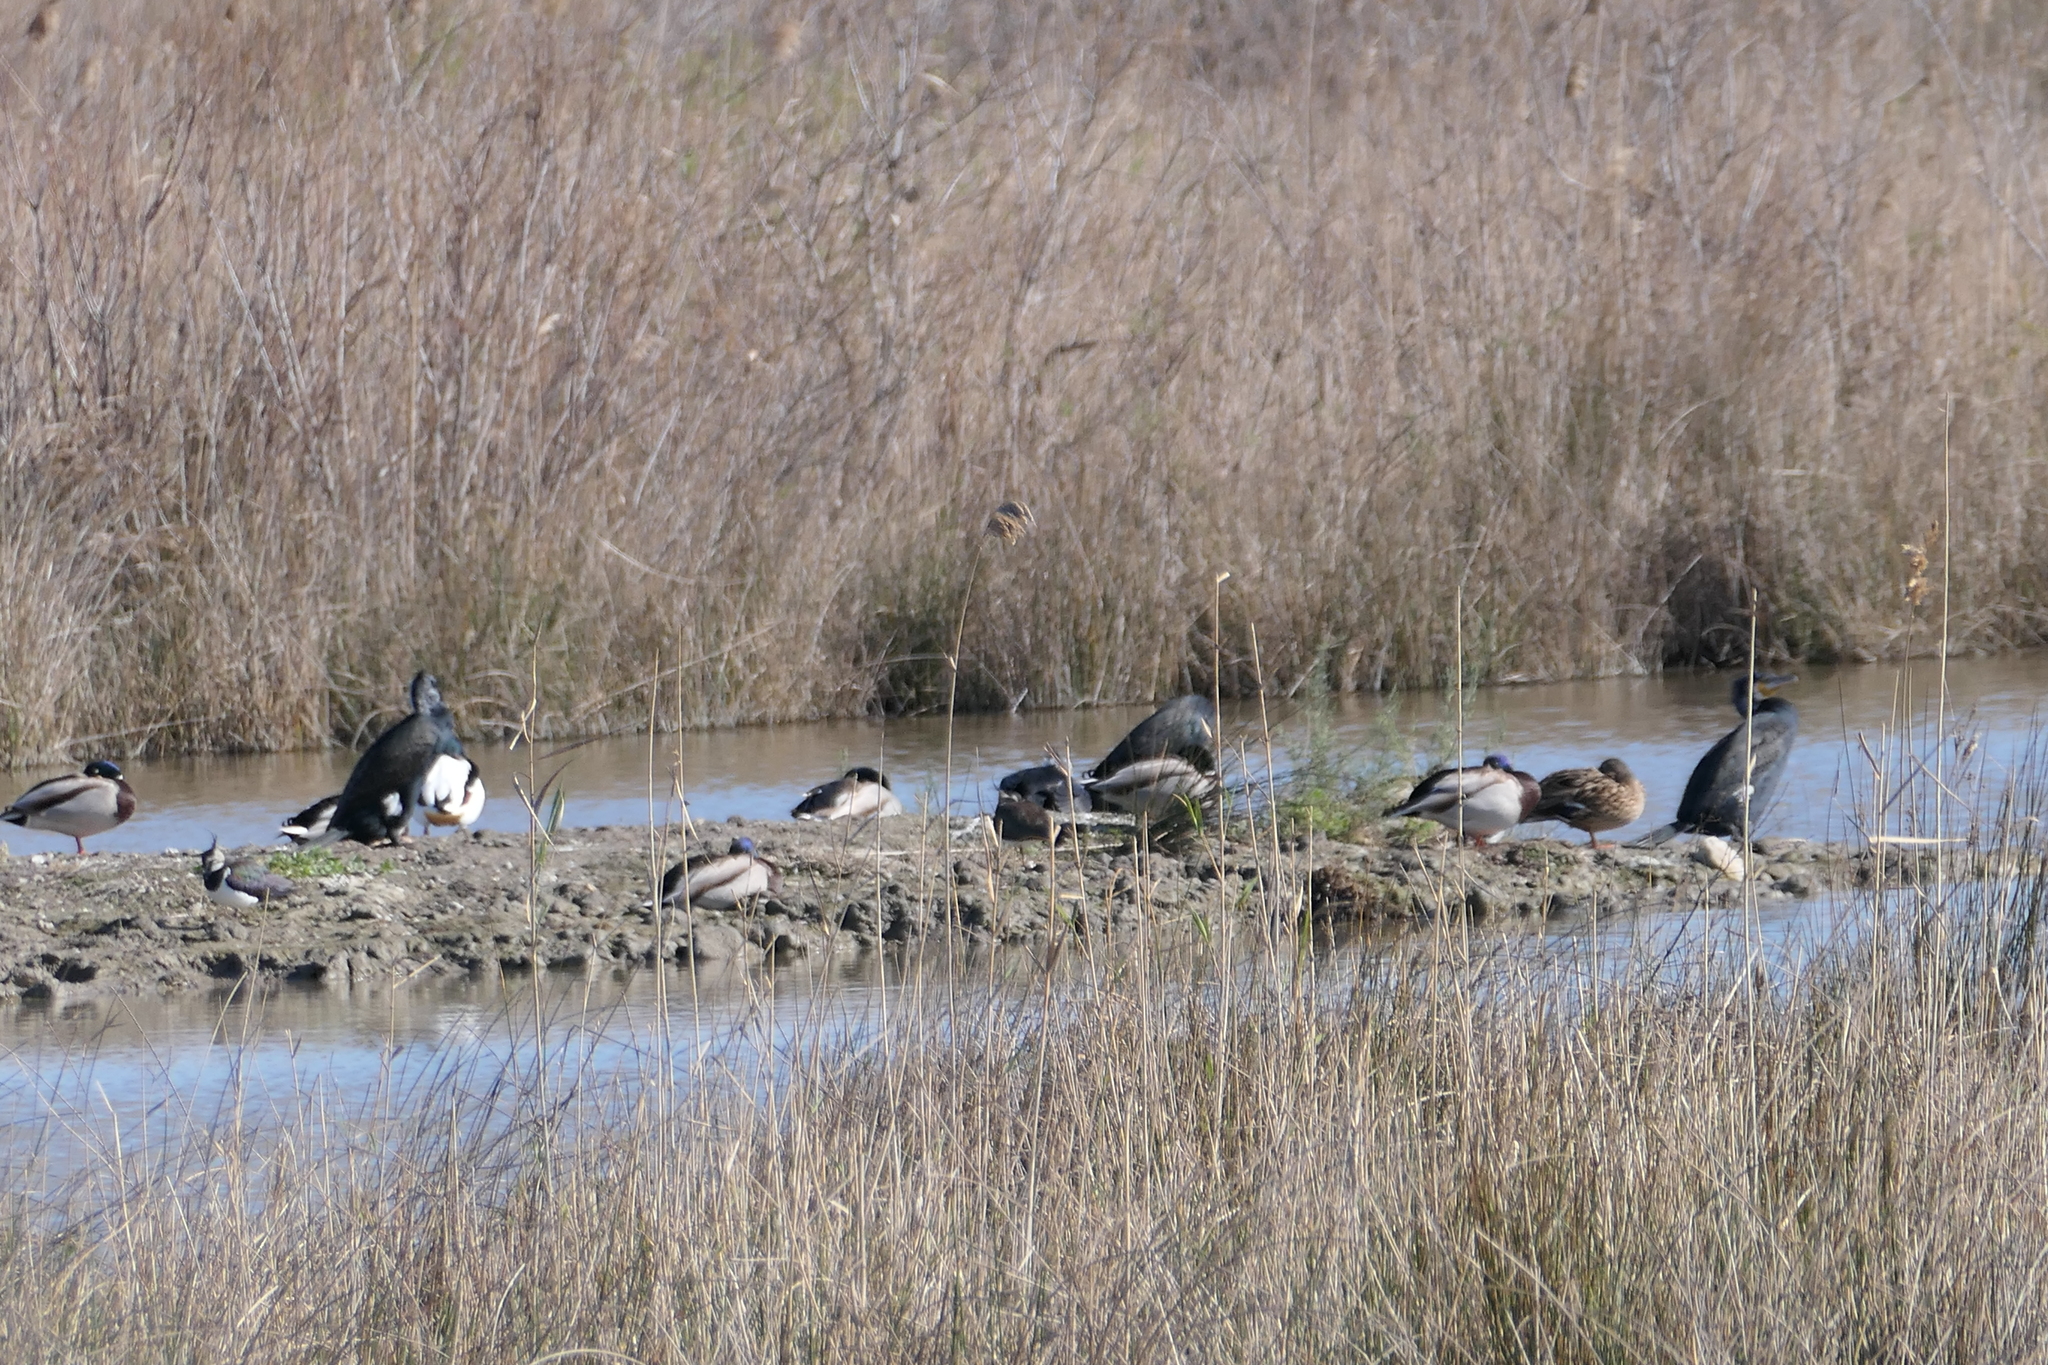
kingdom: Animalia
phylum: Chordata
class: Aves
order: Suliformes
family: Phalacrocoracidae
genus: Phalacrocorax
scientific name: Phalacrocorax carbo
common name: Great cormorant
